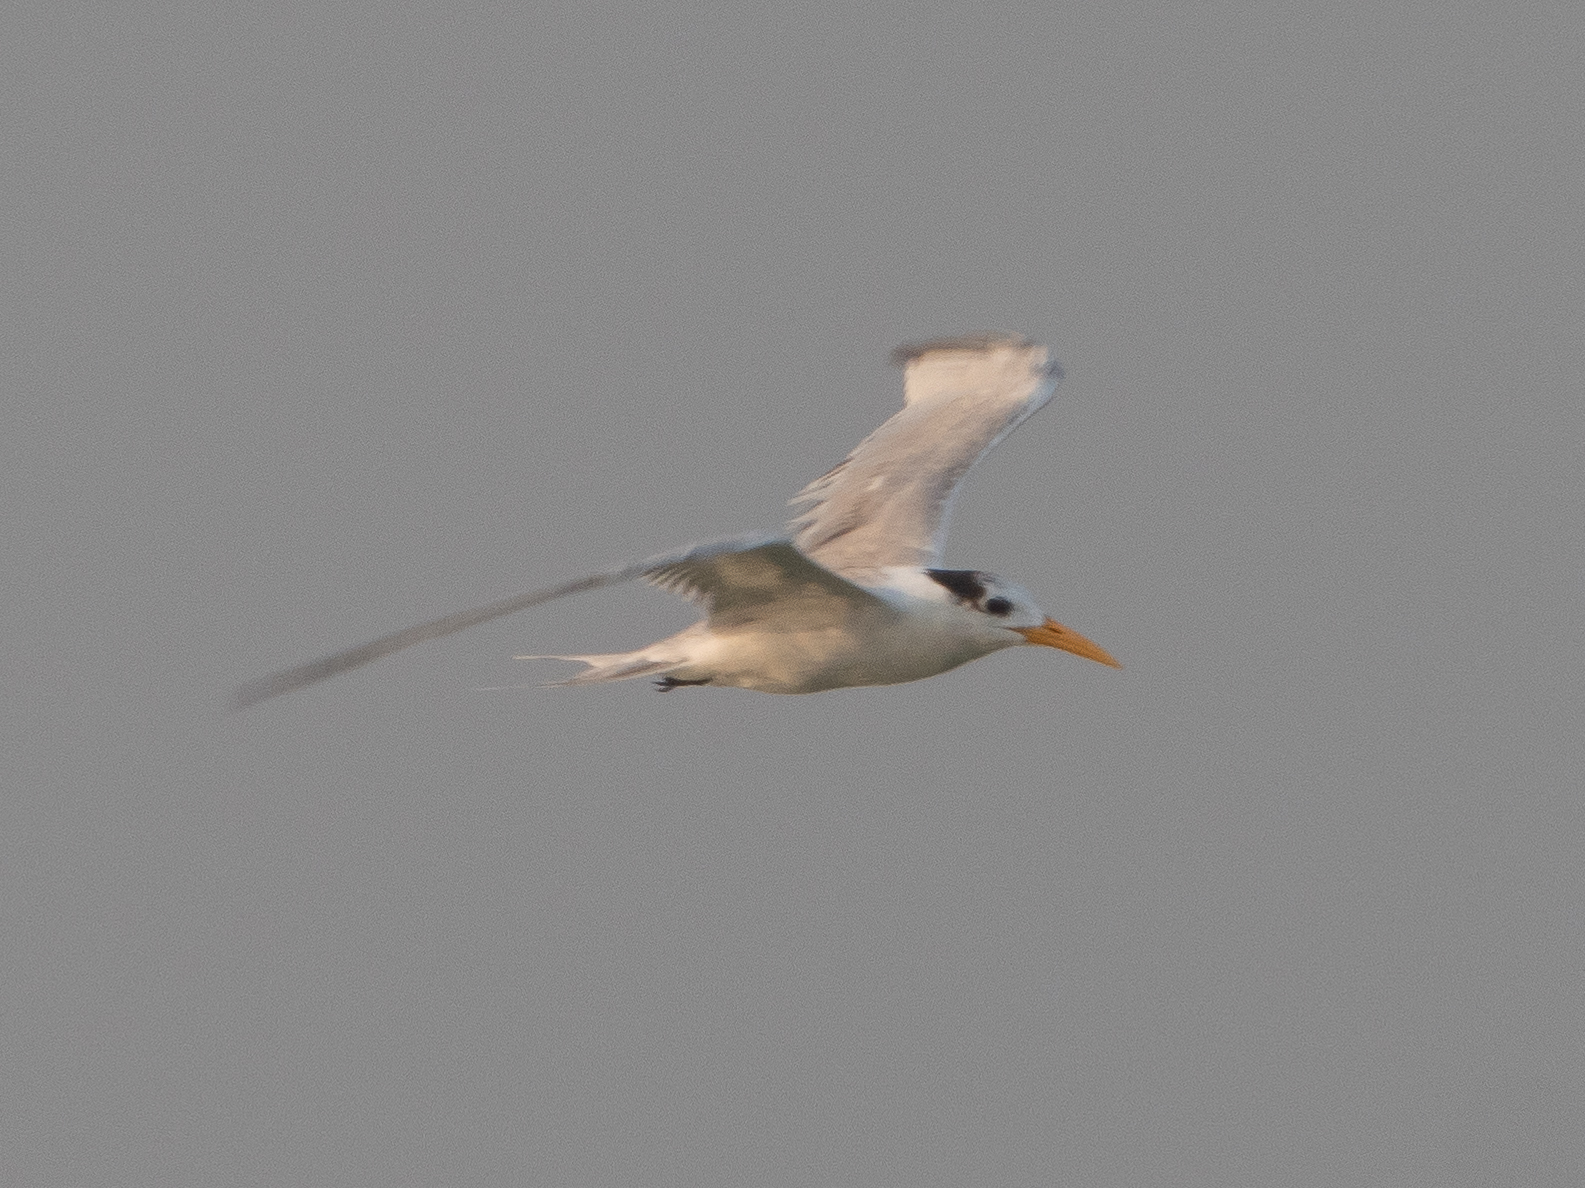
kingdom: Animalia
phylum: Chordata
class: Aves
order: Charadriiformes
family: Laridae
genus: Thalasseus
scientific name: Thalasseus bengalensis
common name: Lesser crested tern
